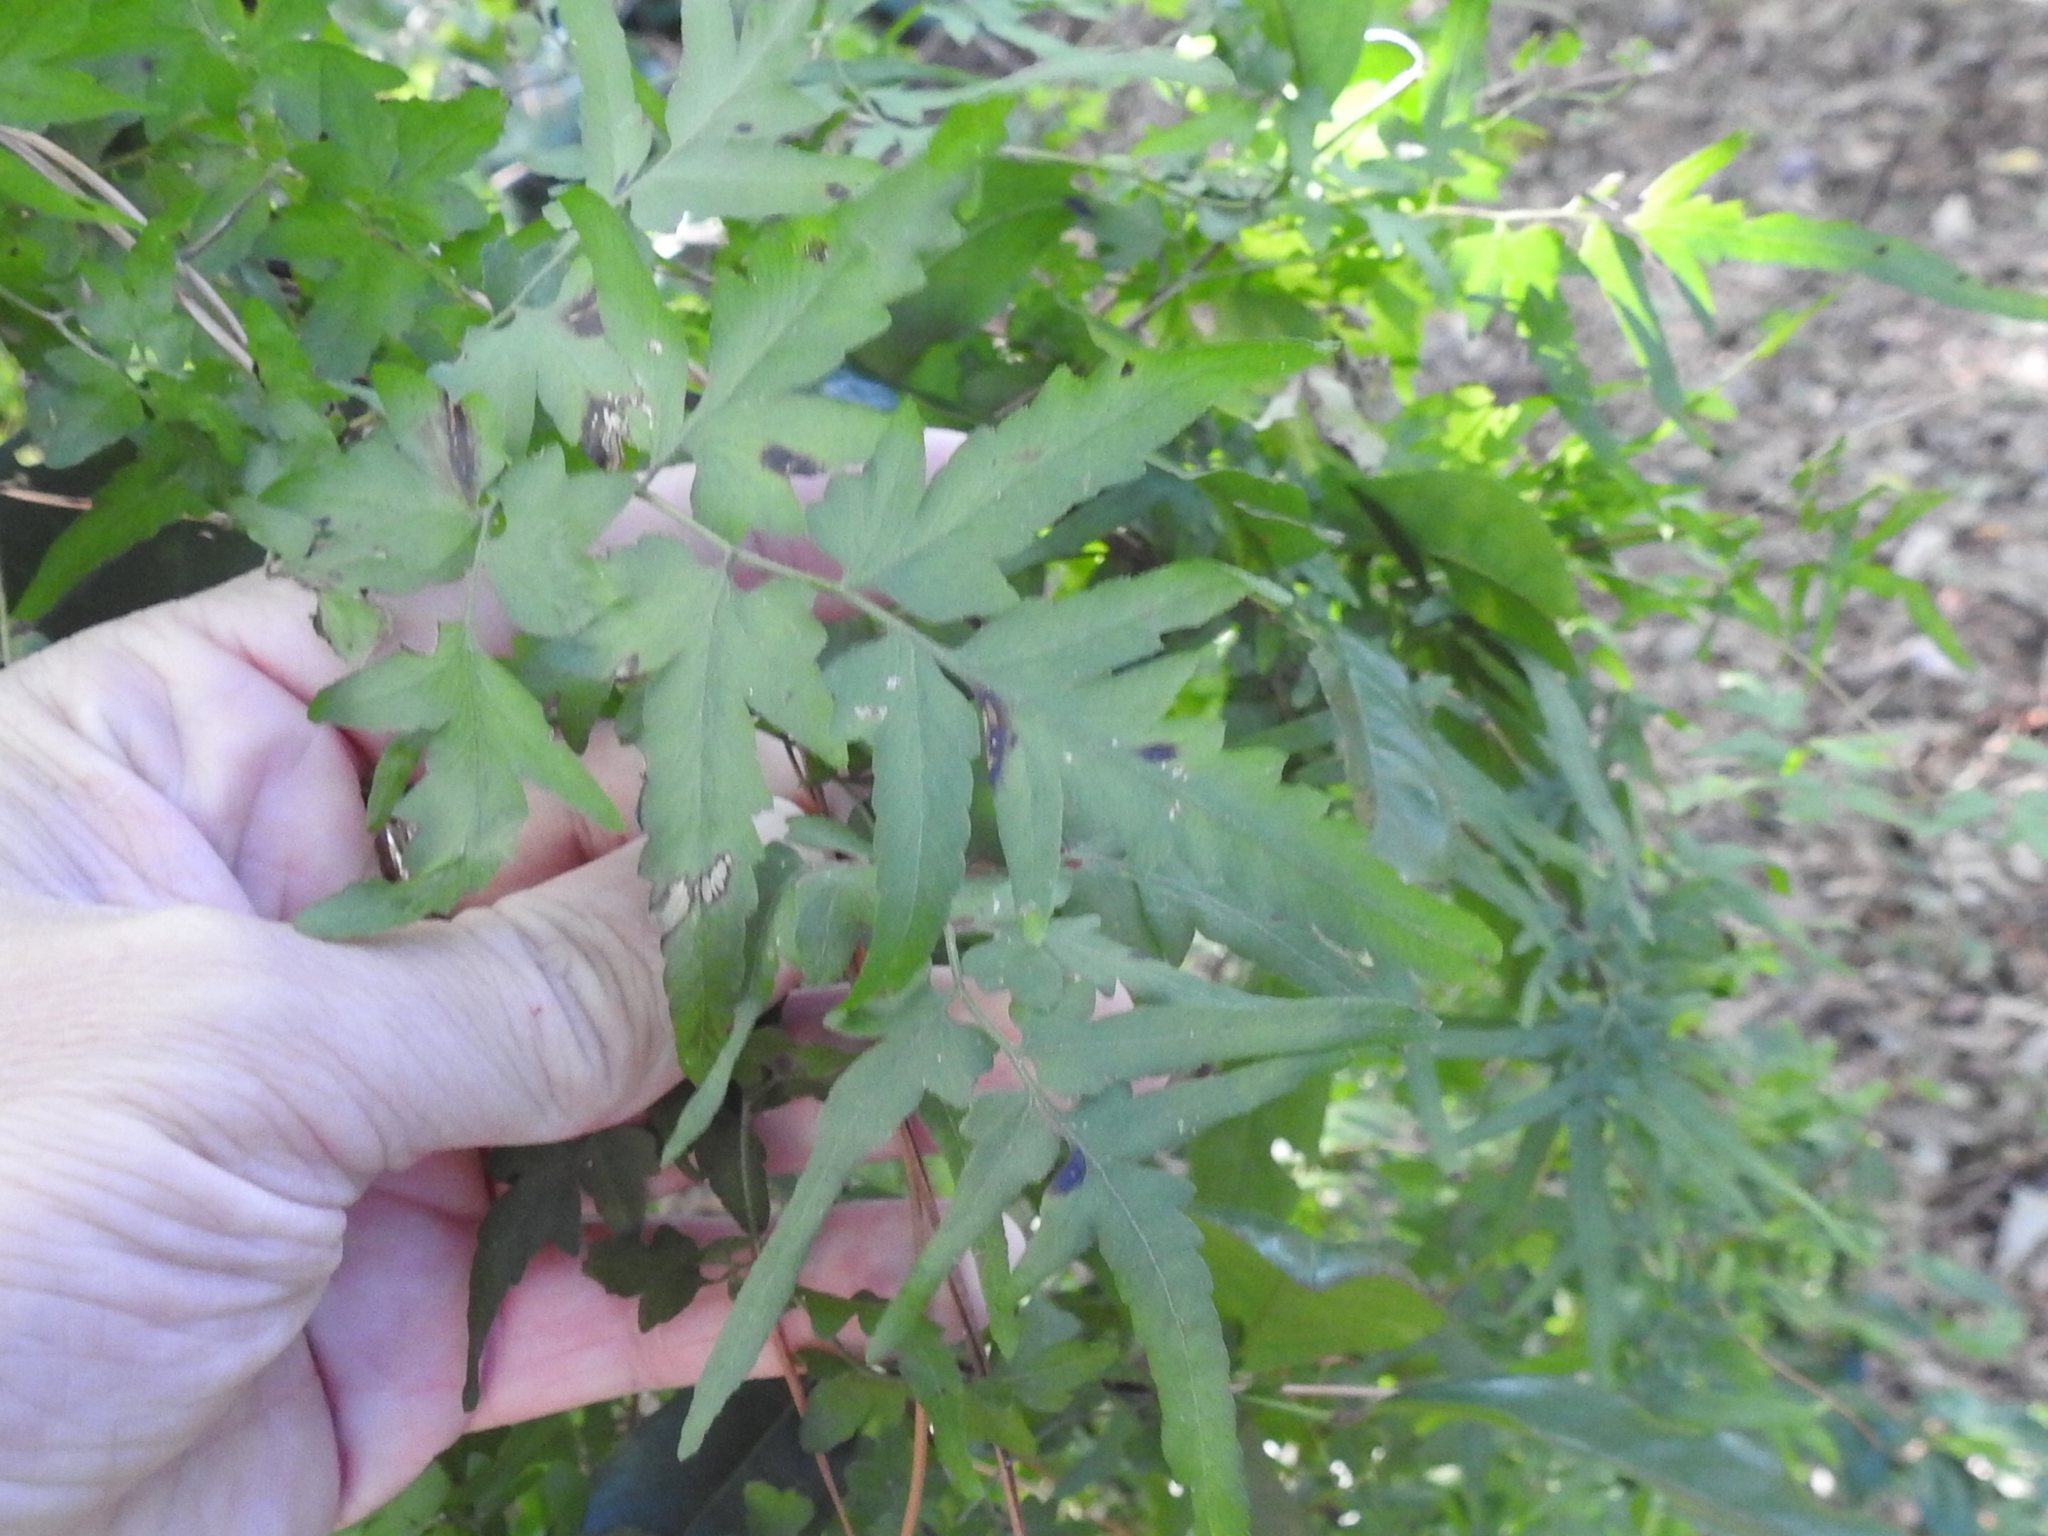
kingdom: Plantae
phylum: Tracheophyta
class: Polypodiopsida
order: Schizaeales
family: Lygodiaceae
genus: Lygodium
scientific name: Lygodium japonicum
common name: Japanese climbing fern
